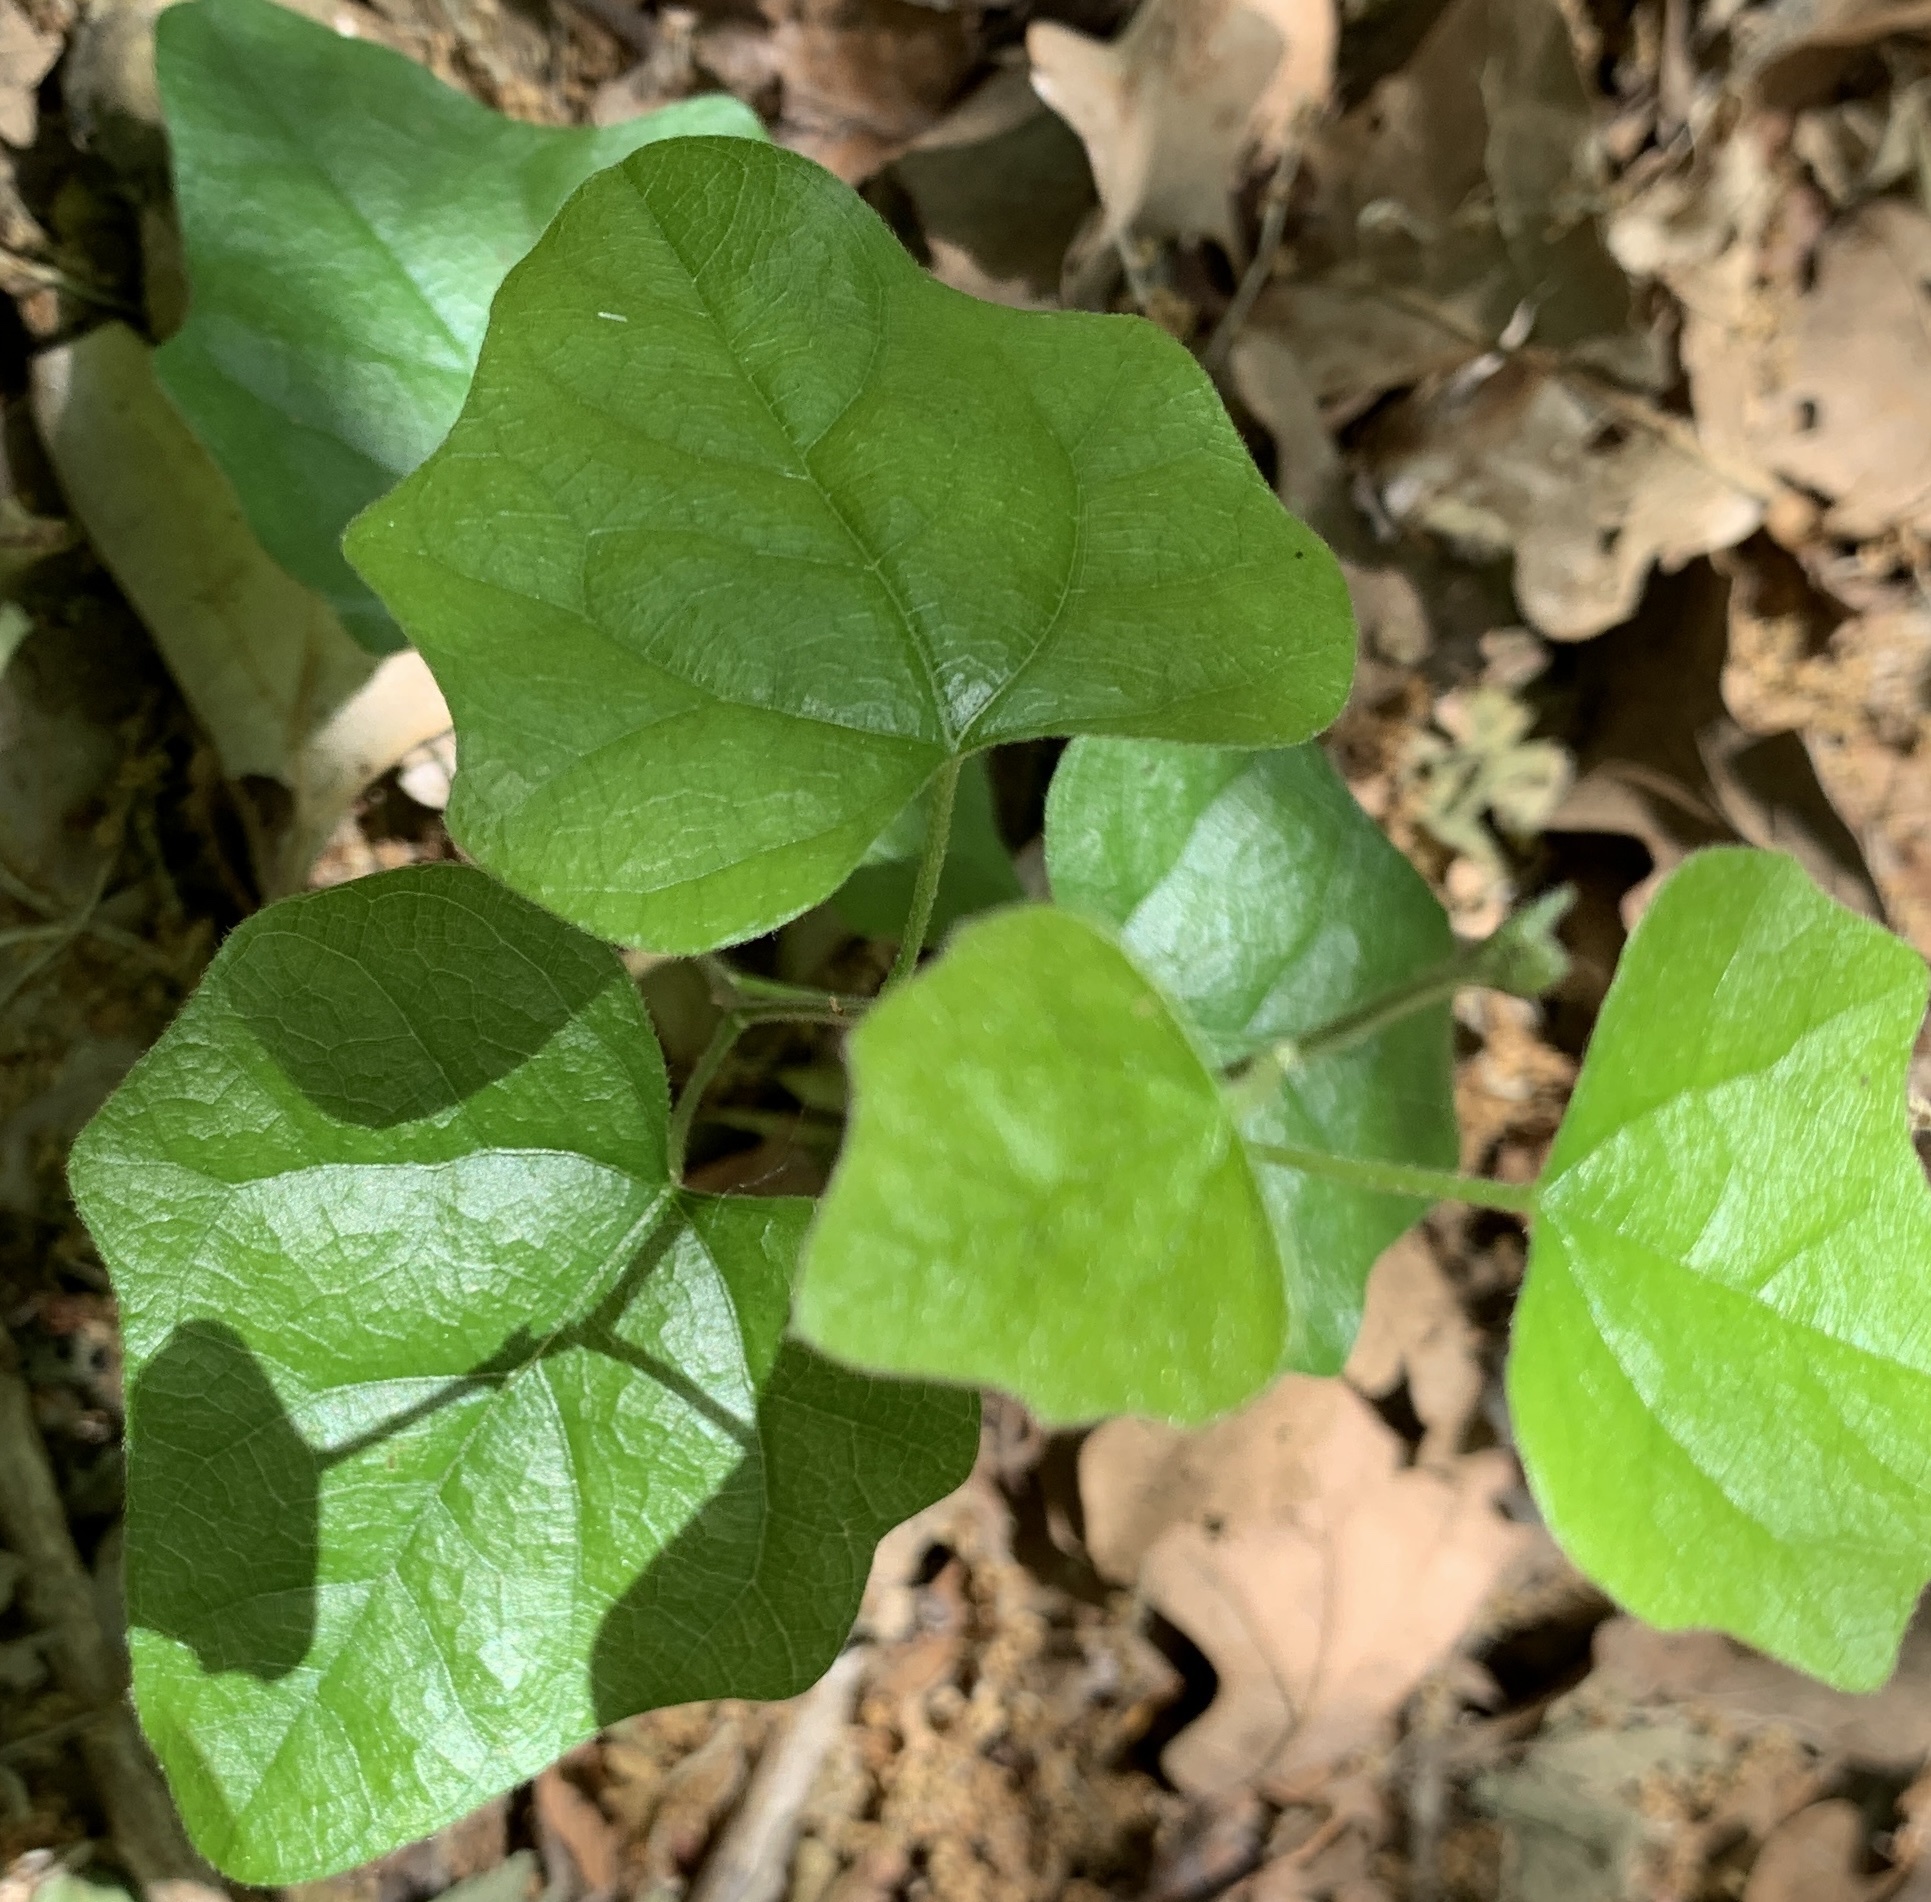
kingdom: Plantae
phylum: Tracheophyta
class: Magnoliopsida
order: Ranunculales
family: Menispermaceae
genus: Cocculus
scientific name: Cocculus carolinus
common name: Carolina moonseed
